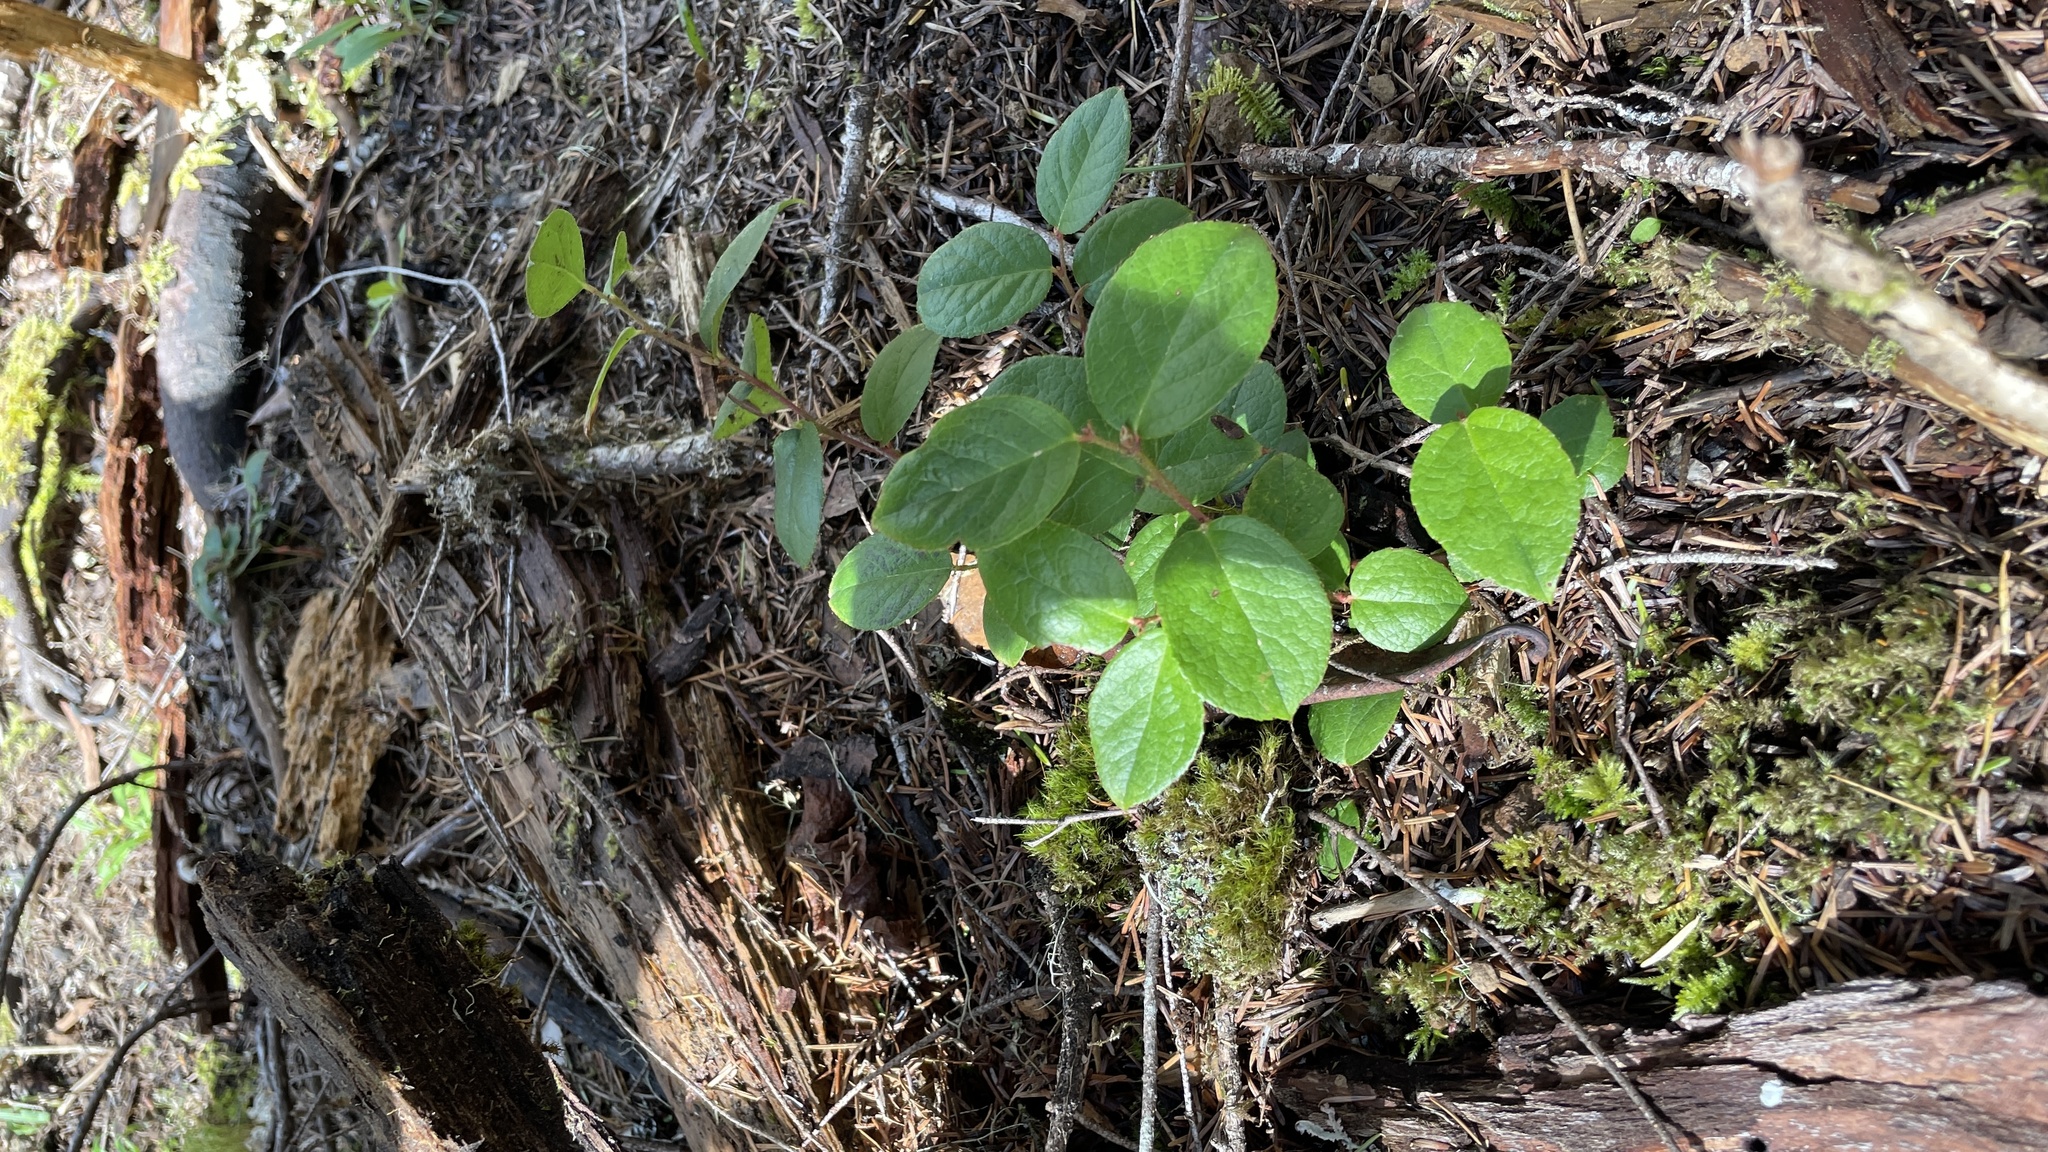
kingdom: Plantae
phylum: Tracheophyta
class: Magnoliopsida
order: Ericales
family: Ericaceae
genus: Gaultheria
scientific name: Gaultheria shallon
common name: Shallon
